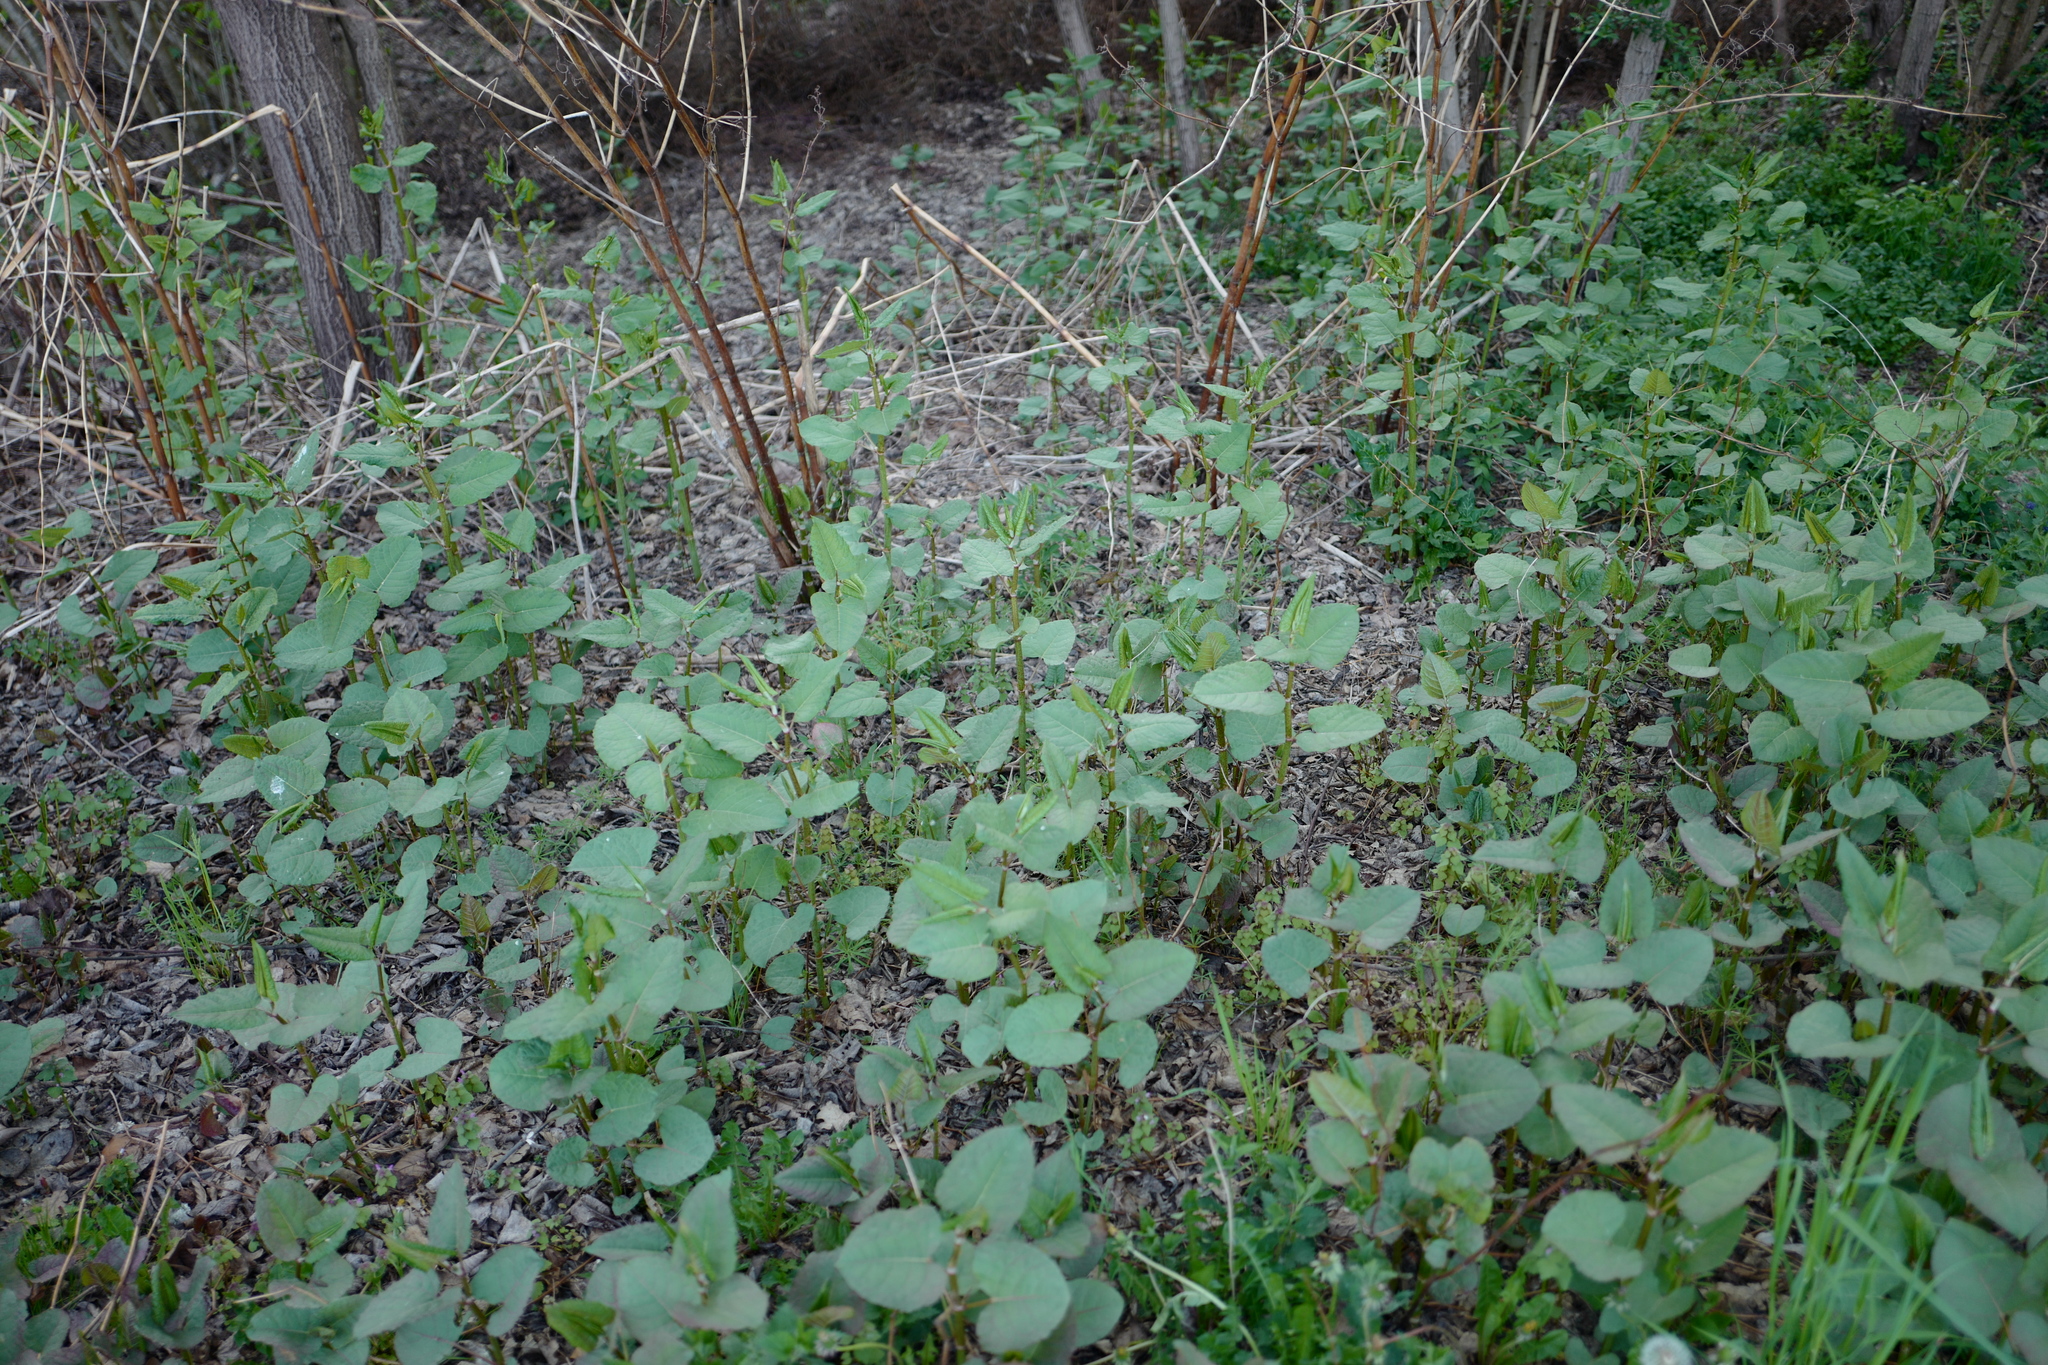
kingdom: Plantae
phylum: Tracheophyta
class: Magnoliopsida
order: Caryophyllales
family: Polygonaceae
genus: Reynoutria
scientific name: Reynoutria bohemica
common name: Bohemian knotweed
